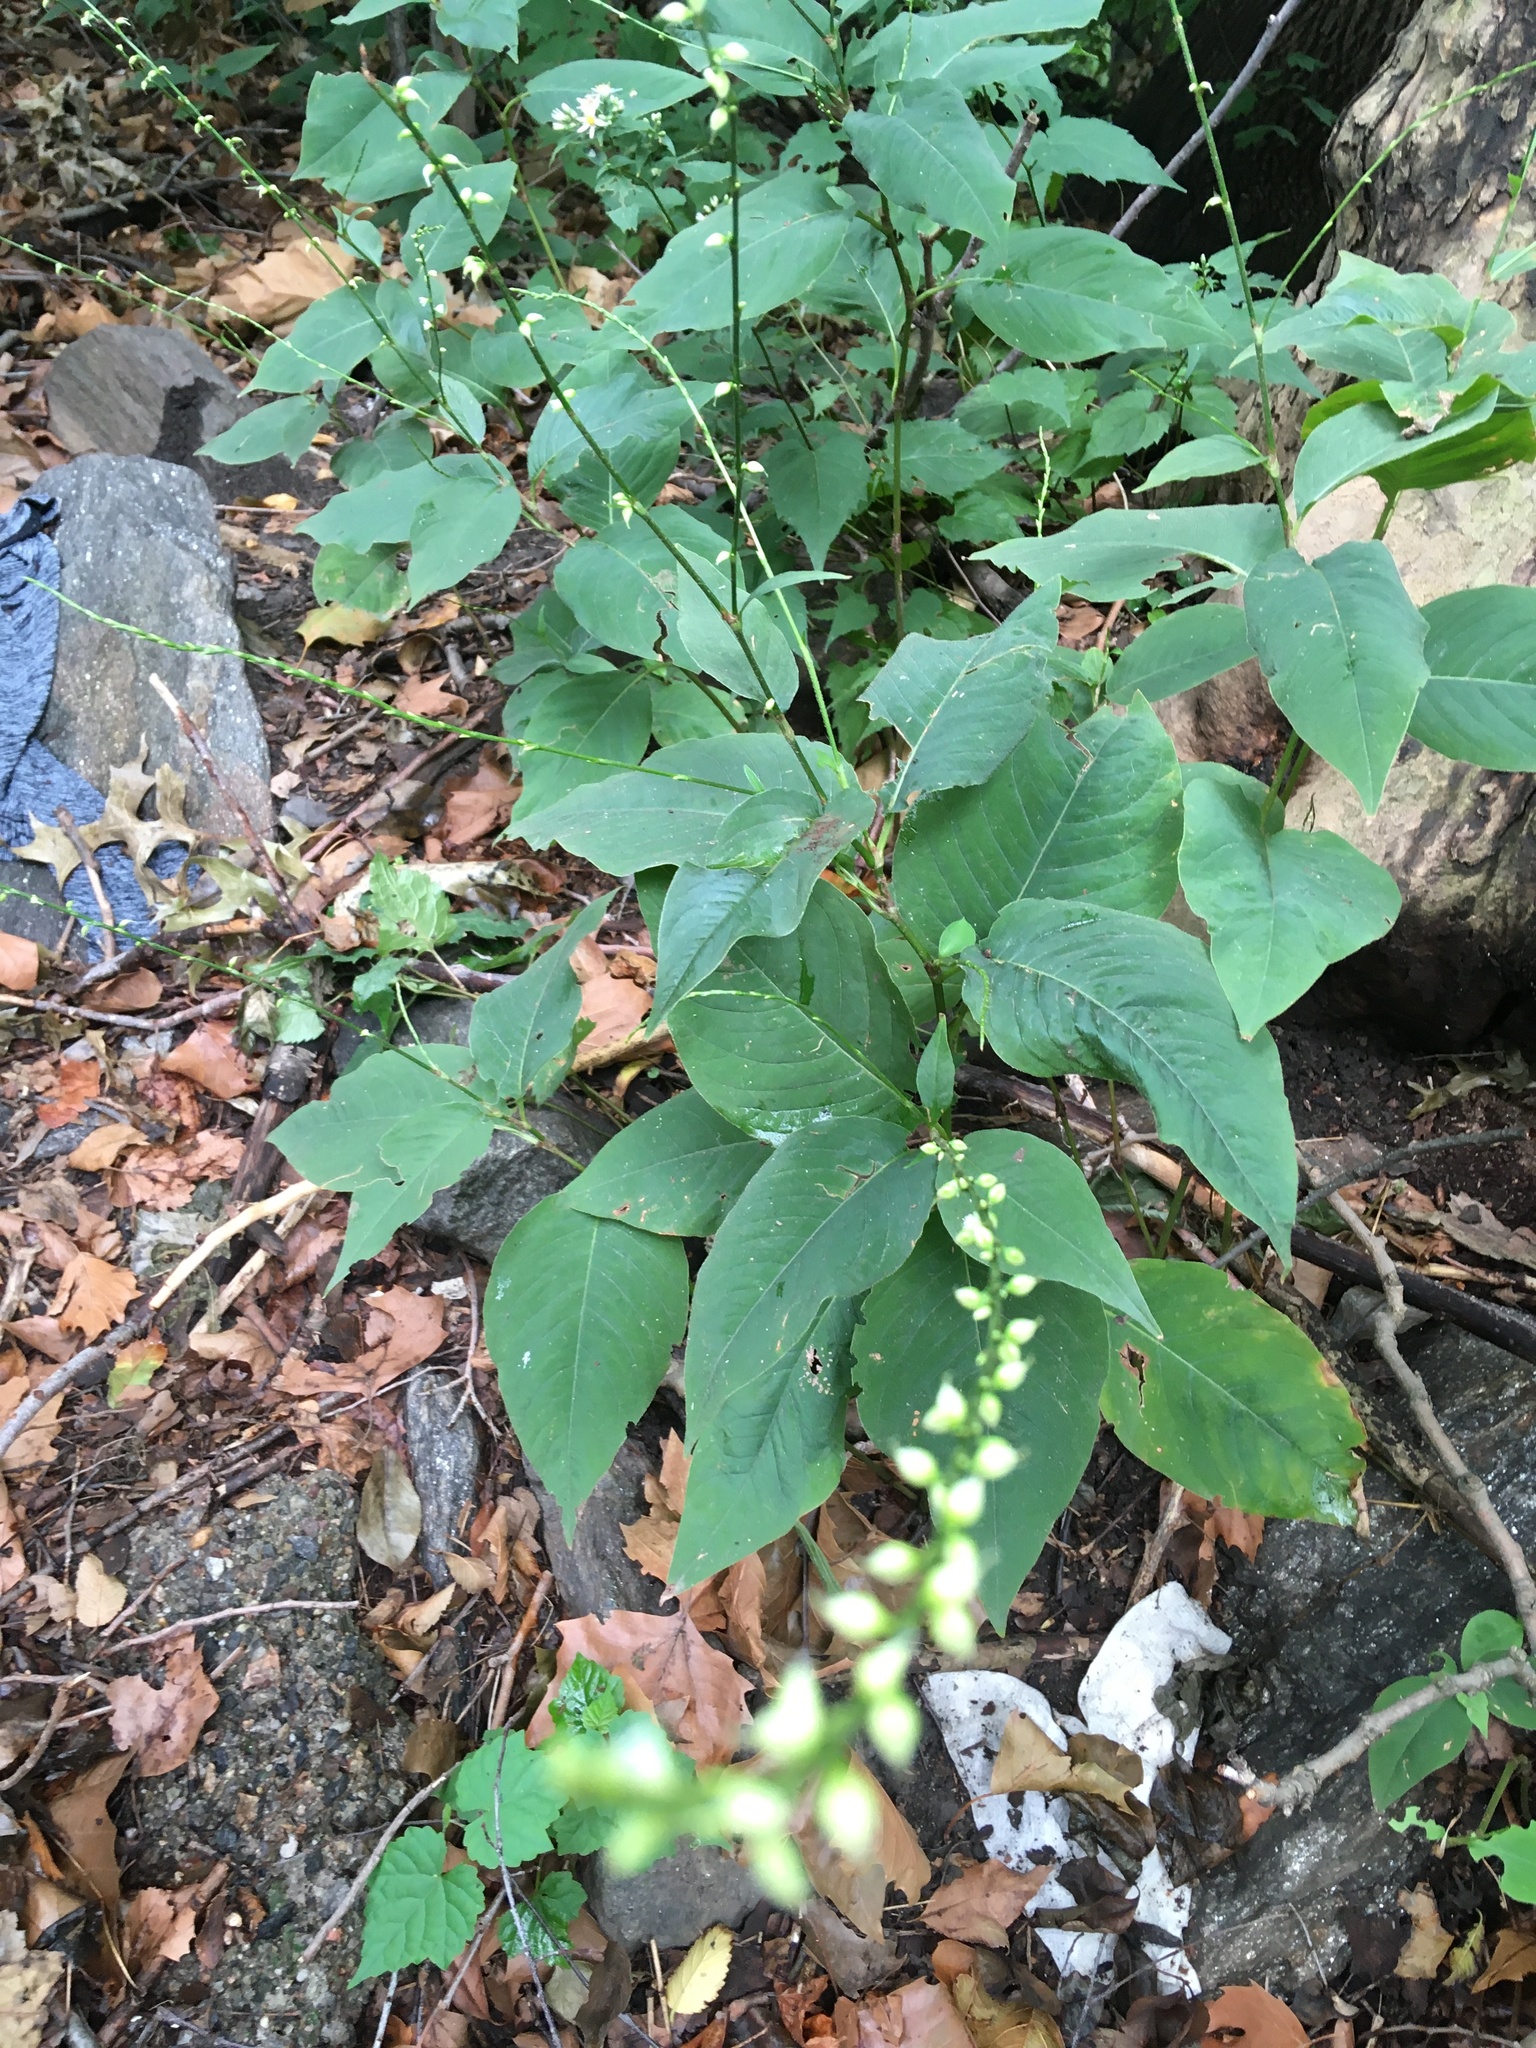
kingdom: Plantae
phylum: Tracheophyta
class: Magnoliopsida
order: Caryophyllales
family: Polygonaceae
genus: Persicaria
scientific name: Persicaria virginiana
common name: Jumpseed
